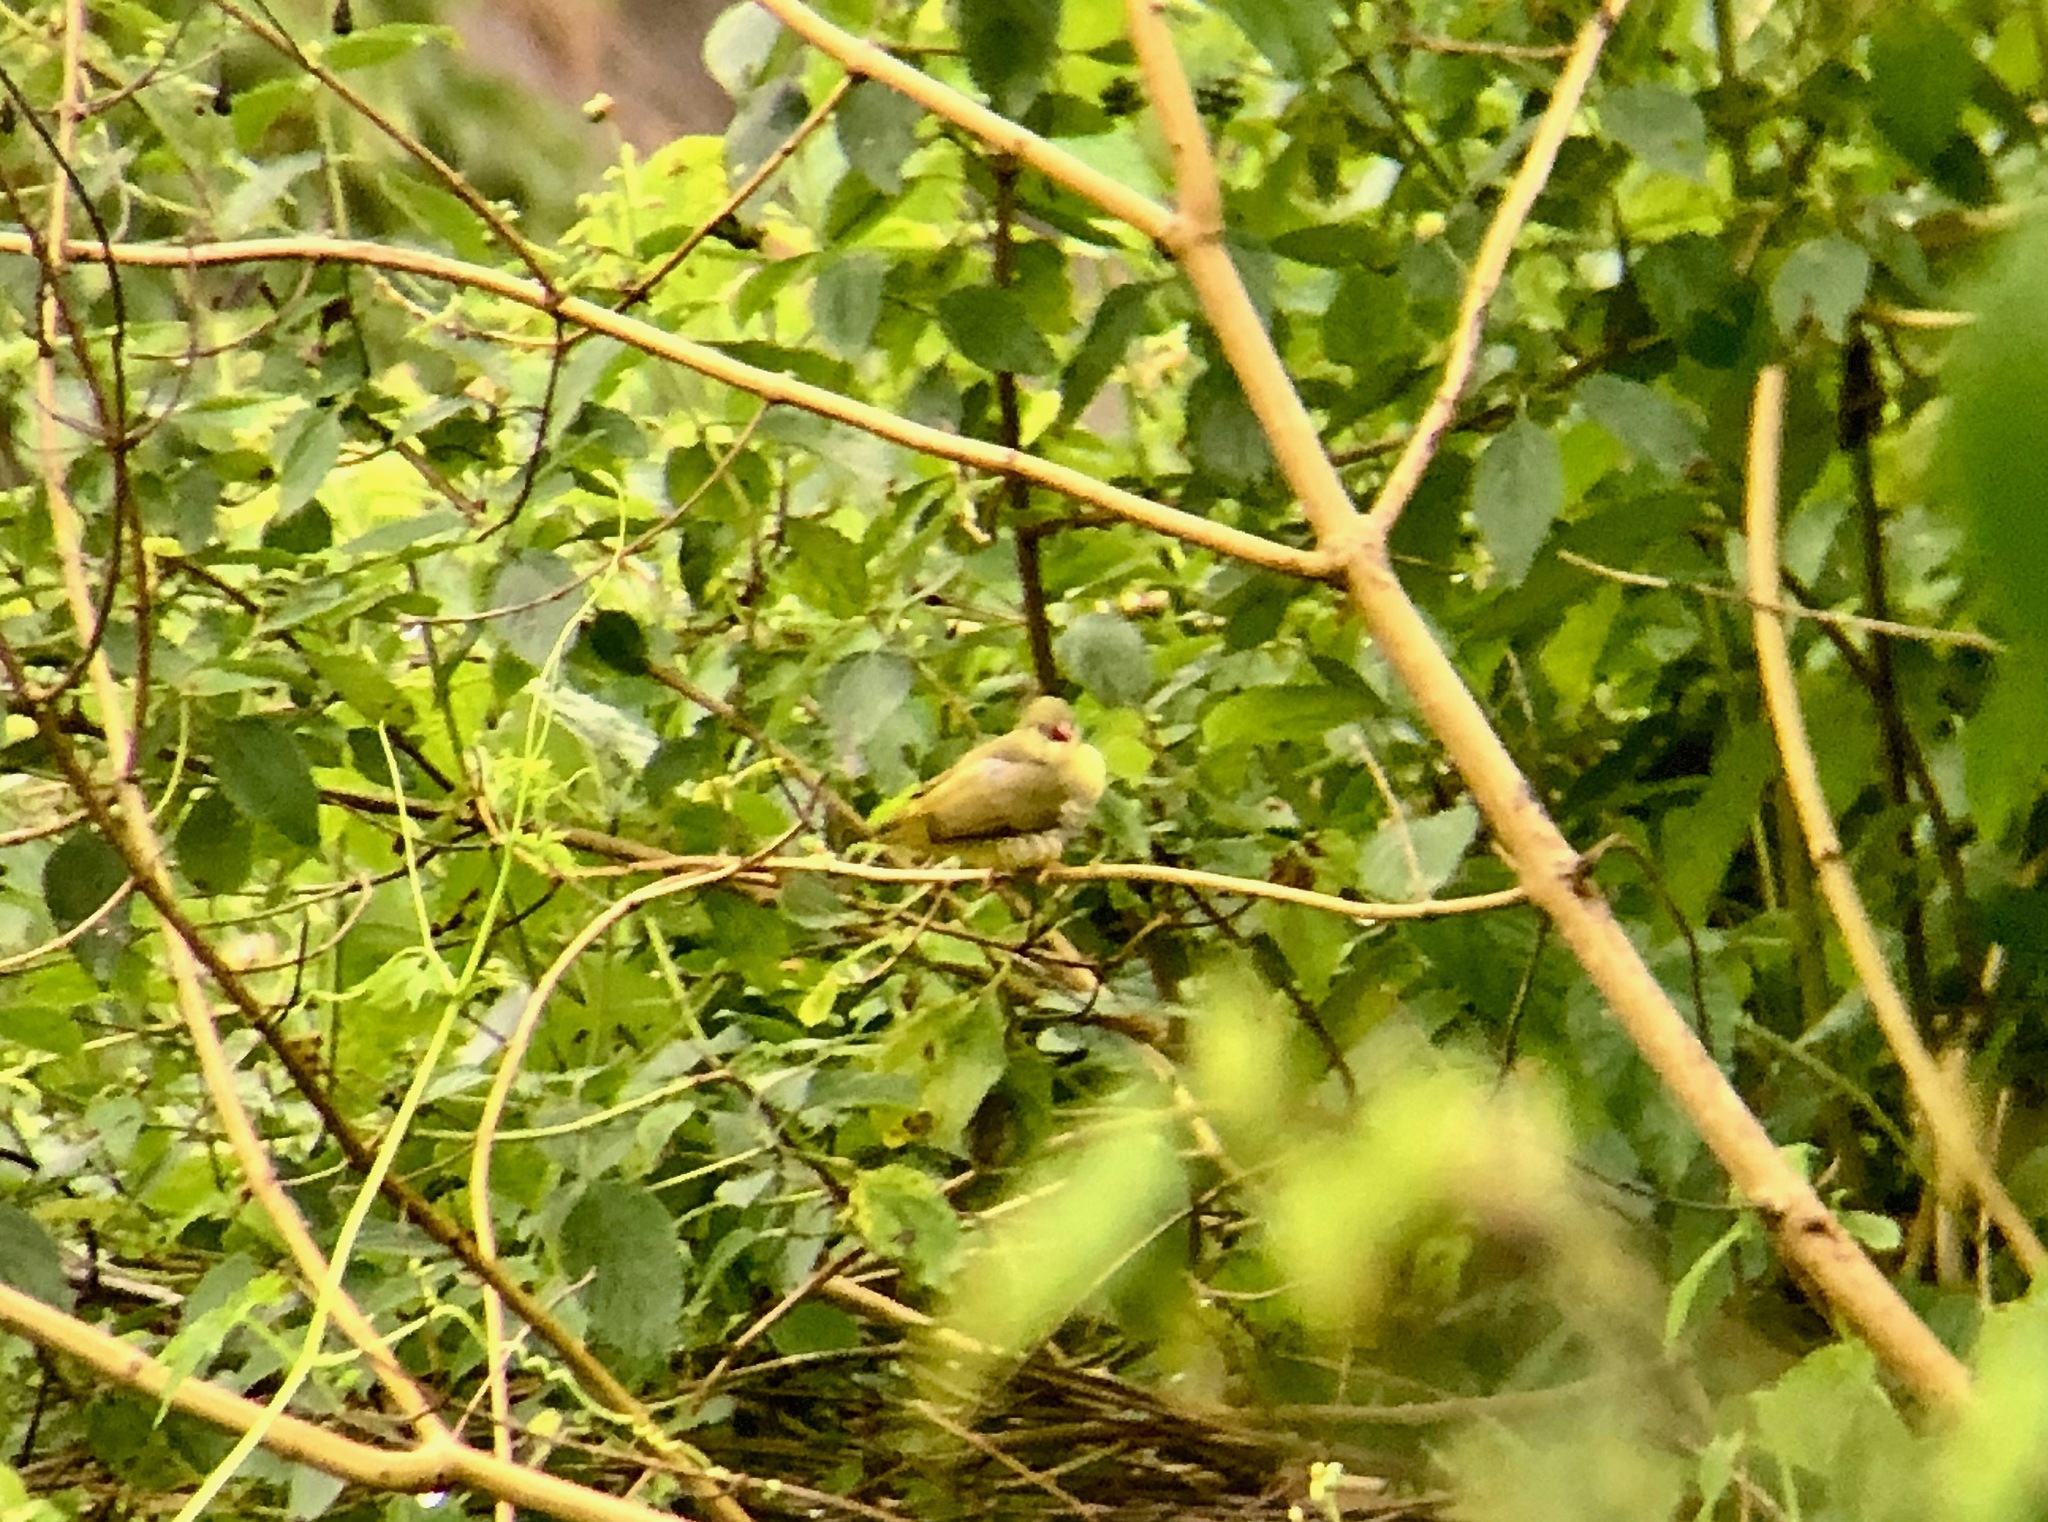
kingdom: Animalia
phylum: Chordata
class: Aves
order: Passeriformes
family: Estrildidae
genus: Amandava
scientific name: Amandava formosa
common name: Green avadavat
